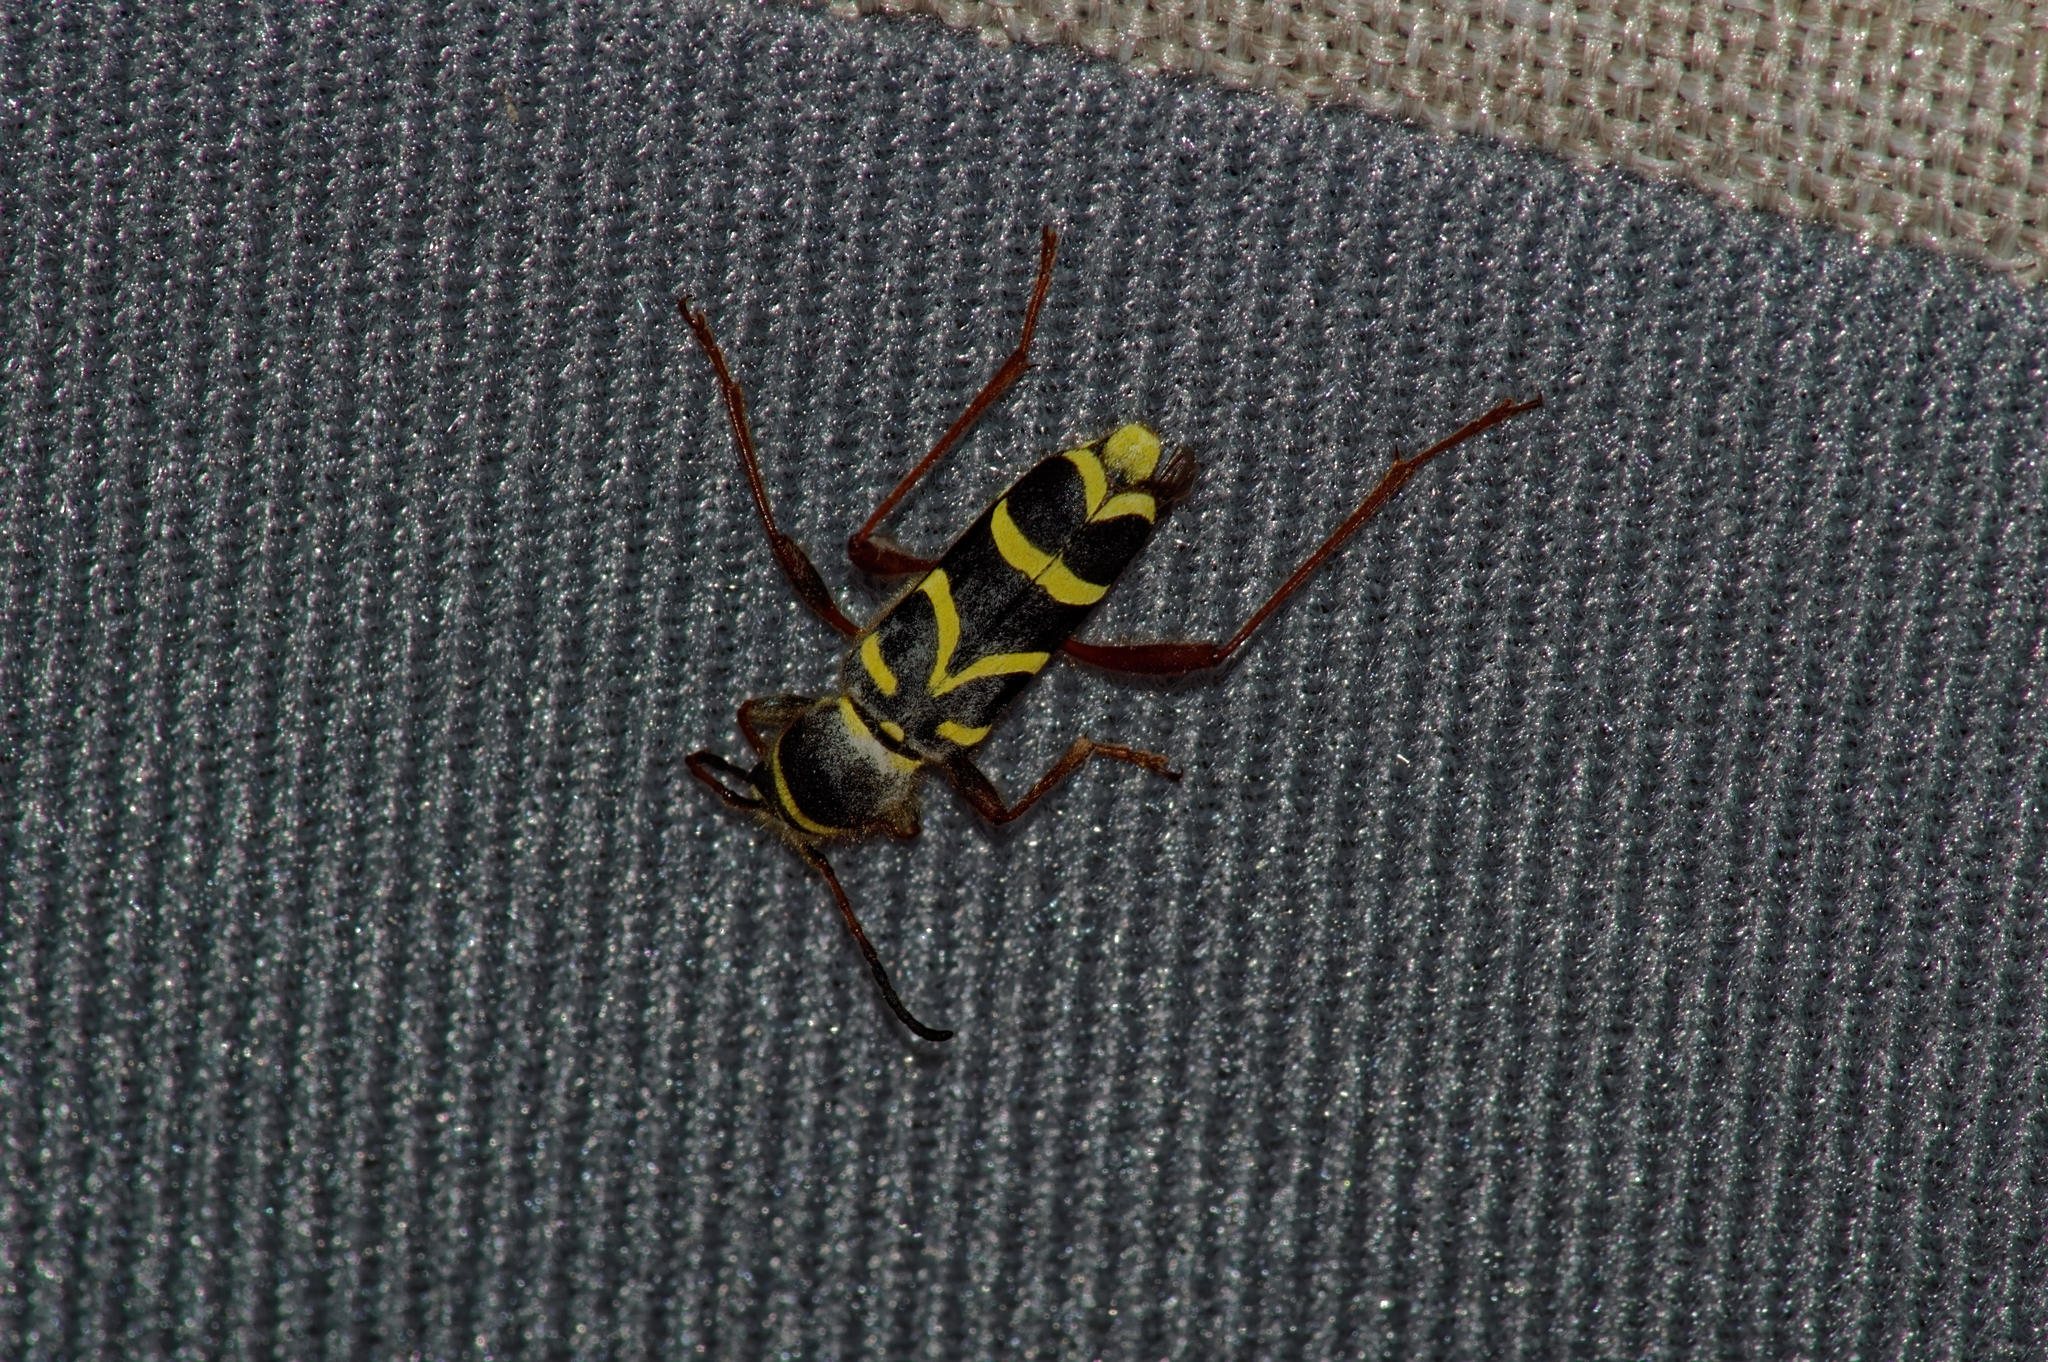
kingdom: Animalia
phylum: Arthropoda
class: Insecta
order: Coleoptera
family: Cerambycidae
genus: Clytus
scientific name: Clytus arietis
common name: Wasp beetle
